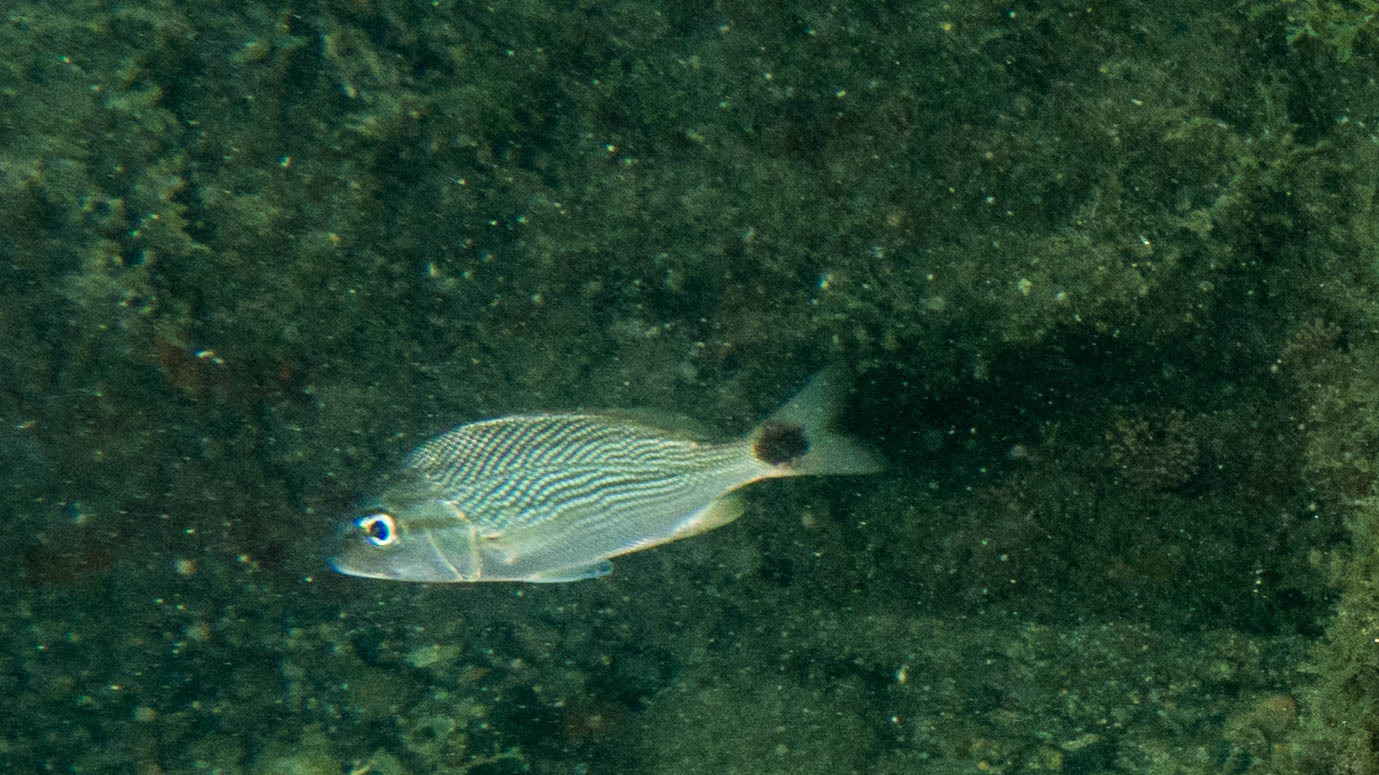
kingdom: Animalia
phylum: Chordata
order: Perciformes
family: Haemulidae
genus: Haemulon
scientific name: Haemulon steindachneri
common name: Latin grunt
